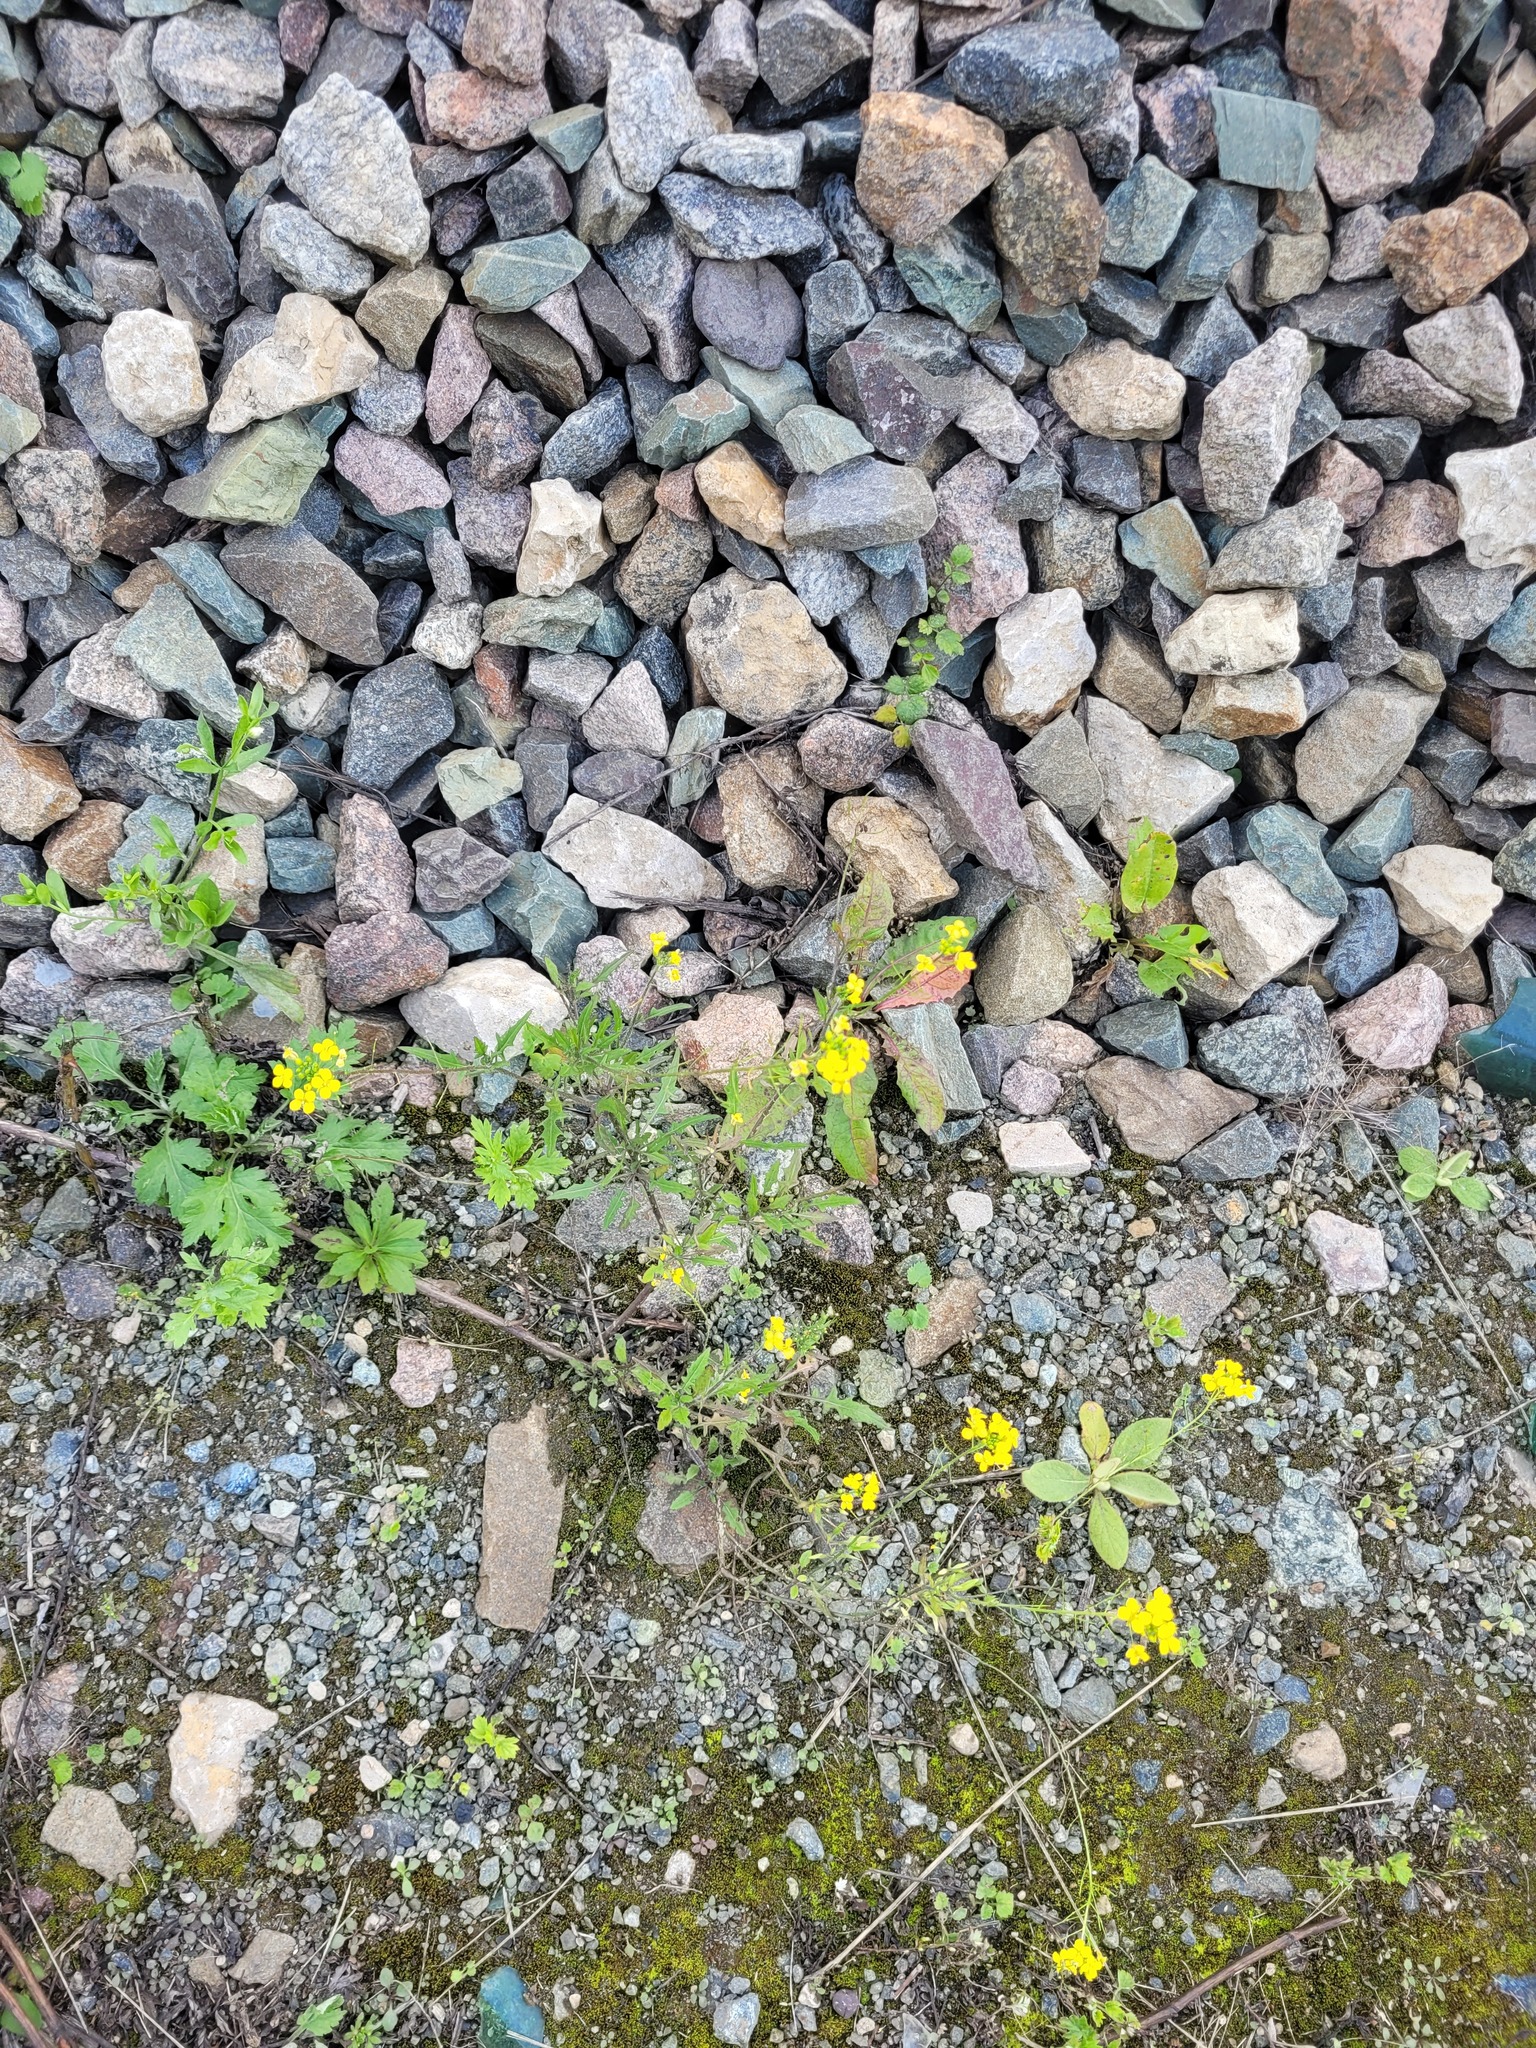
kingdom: Plantae
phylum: Tracheophyta
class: Magnoliopsida
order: Brassicales
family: Brassicaceae
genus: Sisymbrium
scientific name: Sisymbrium loeselii
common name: False london-rocket
